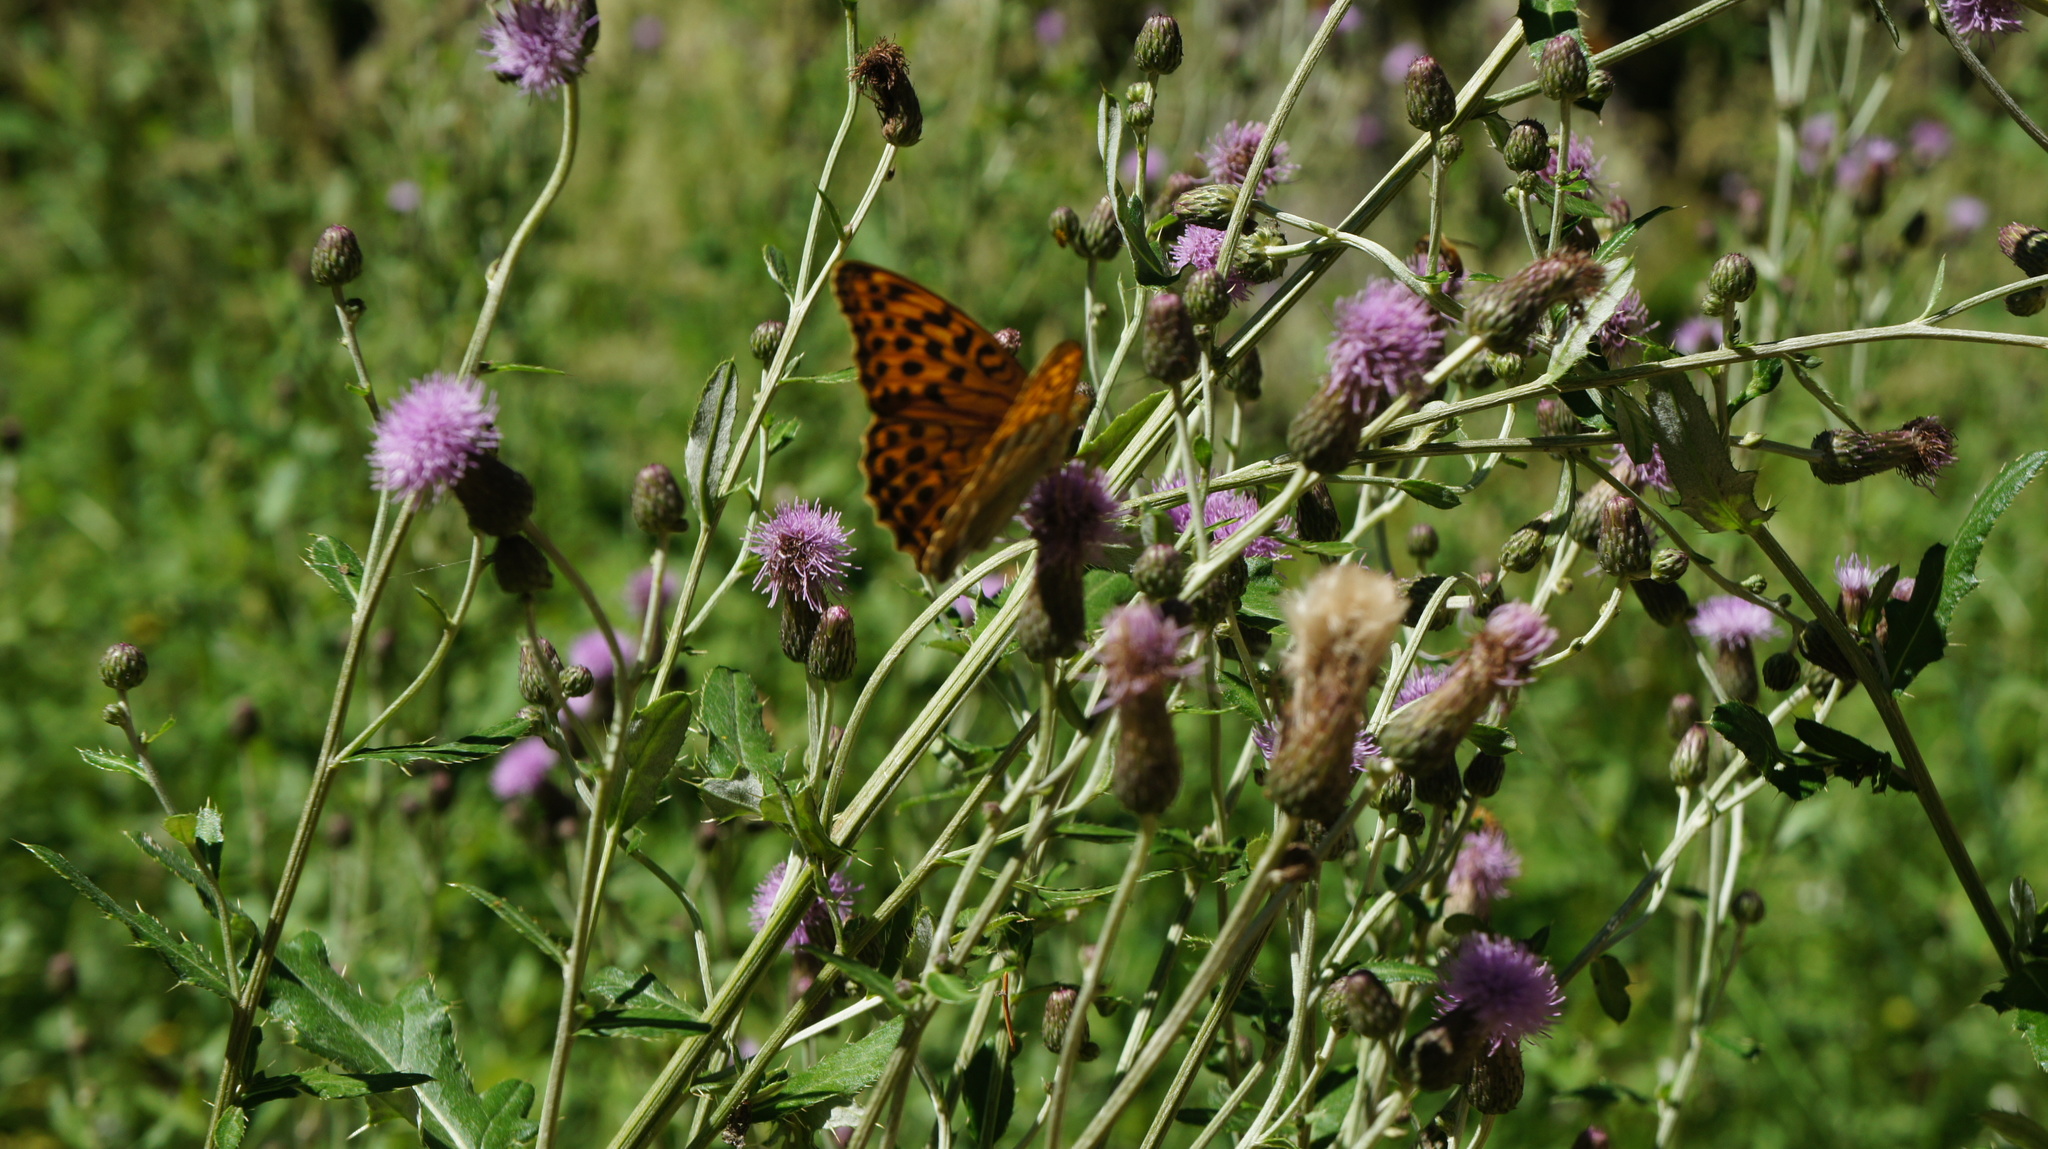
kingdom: Animalia
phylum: Arthropoda
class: Insecta
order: Lepidoptera
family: Nymphalidae
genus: Argynnis
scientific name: Argynnis paphia
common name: Silver-washed fritillary
